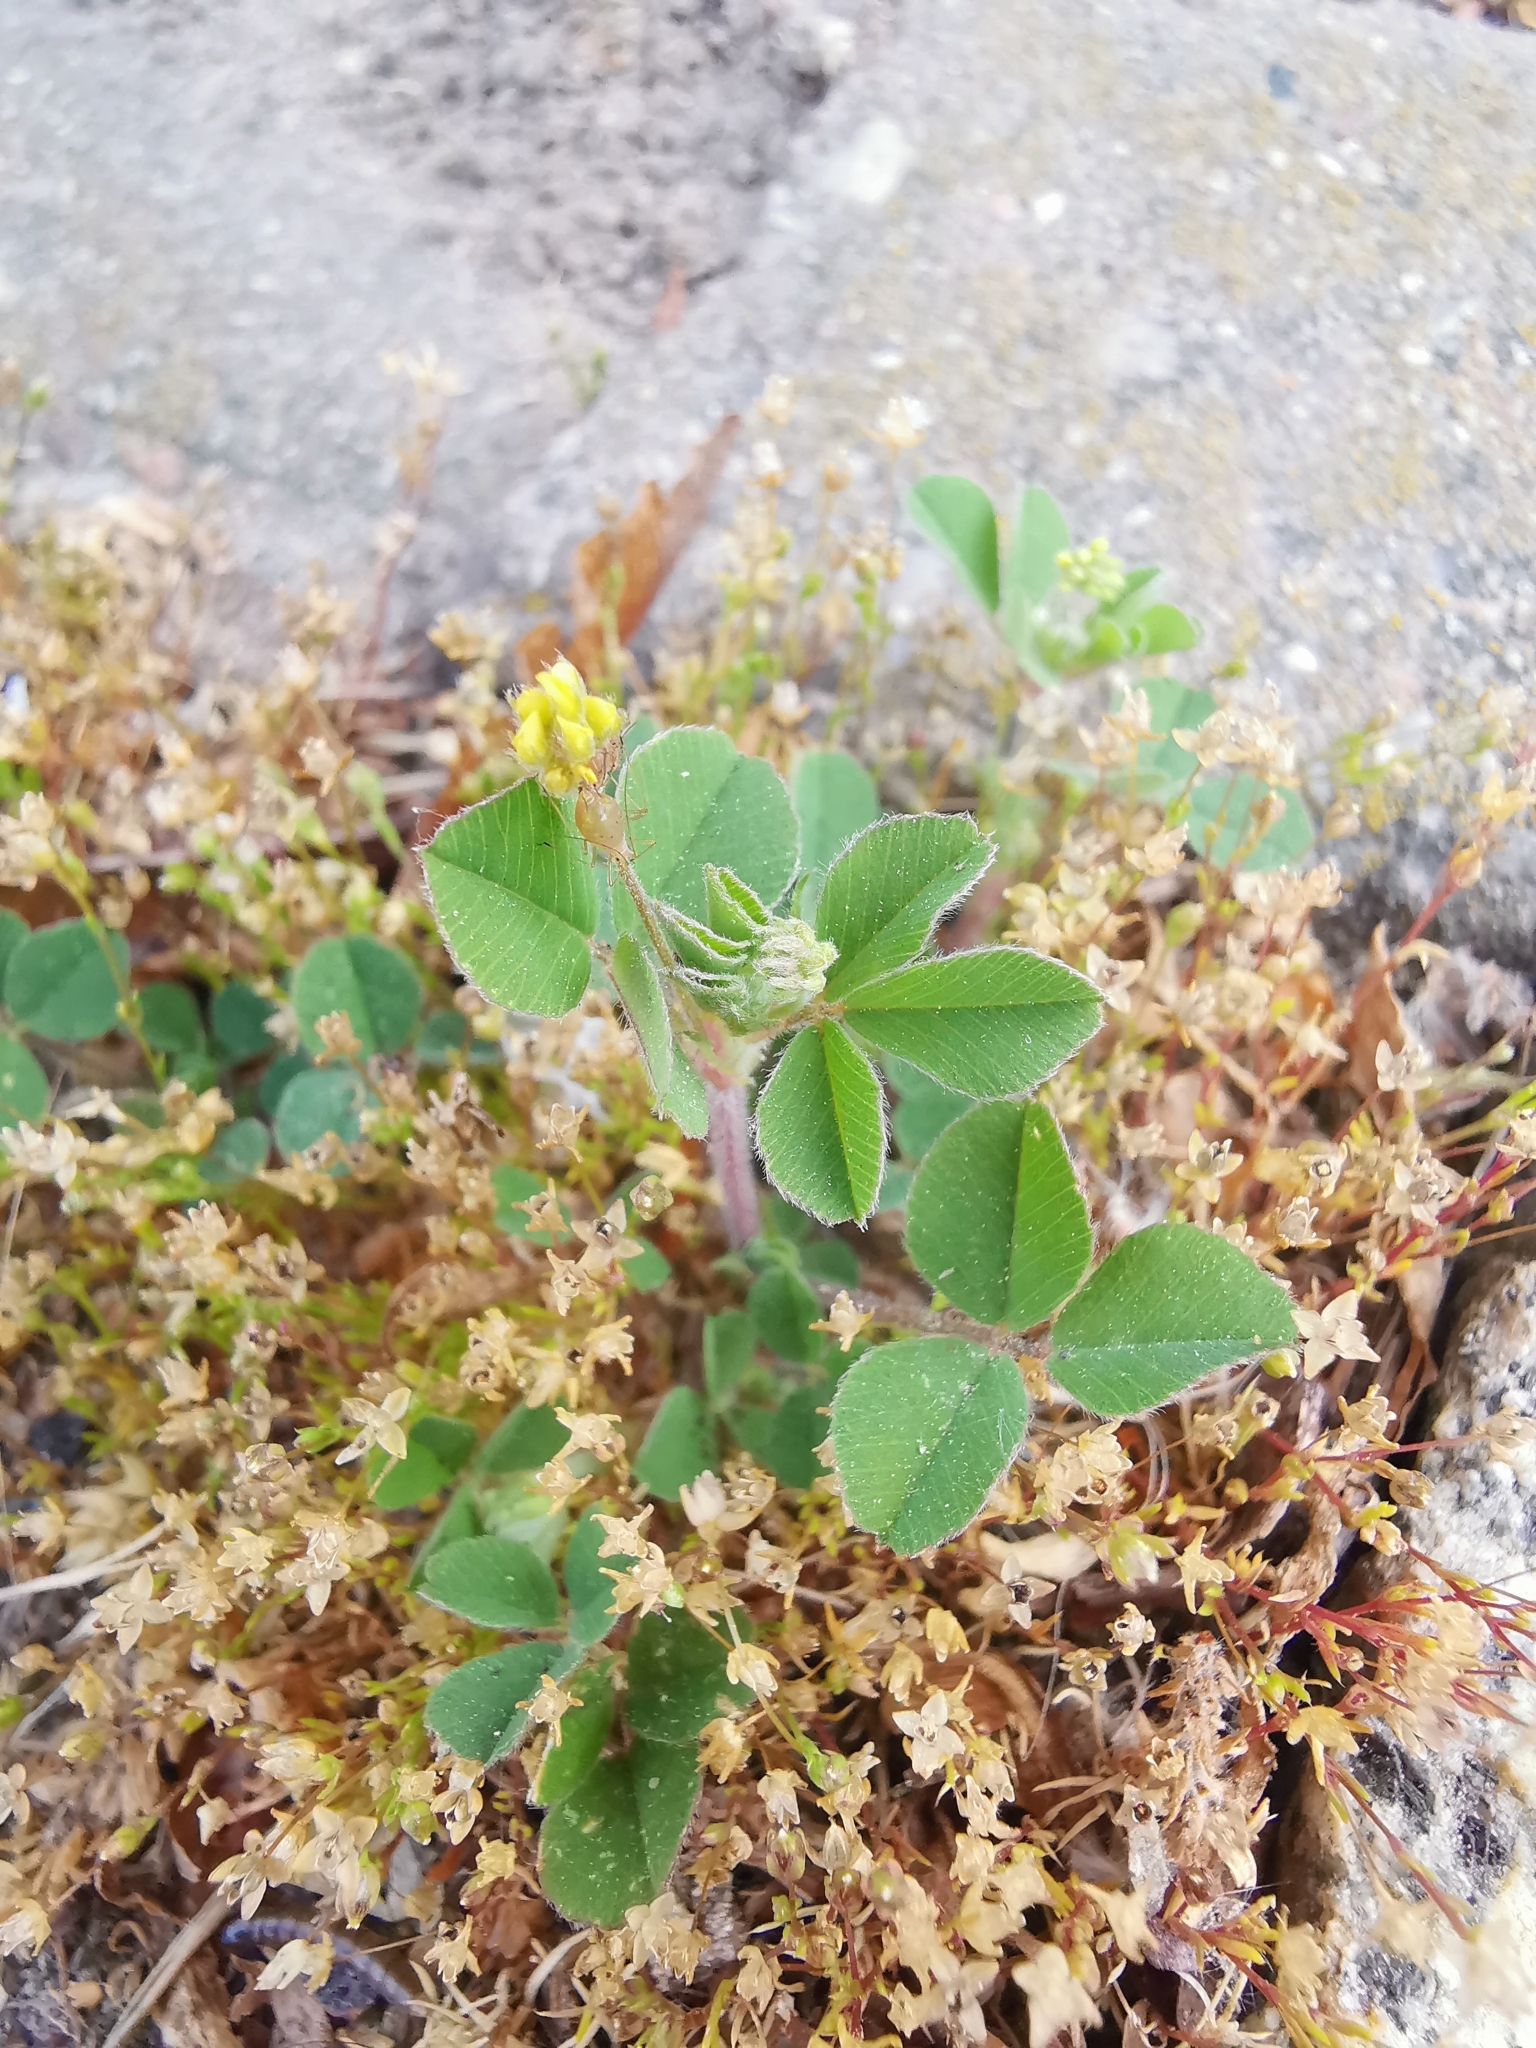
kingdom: Plantae
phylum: Tracheophyta
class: Magnoliopsida
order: Fabales
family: Fabaceae
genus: Medicago
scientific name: Medicago lupulina
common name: Black medick
